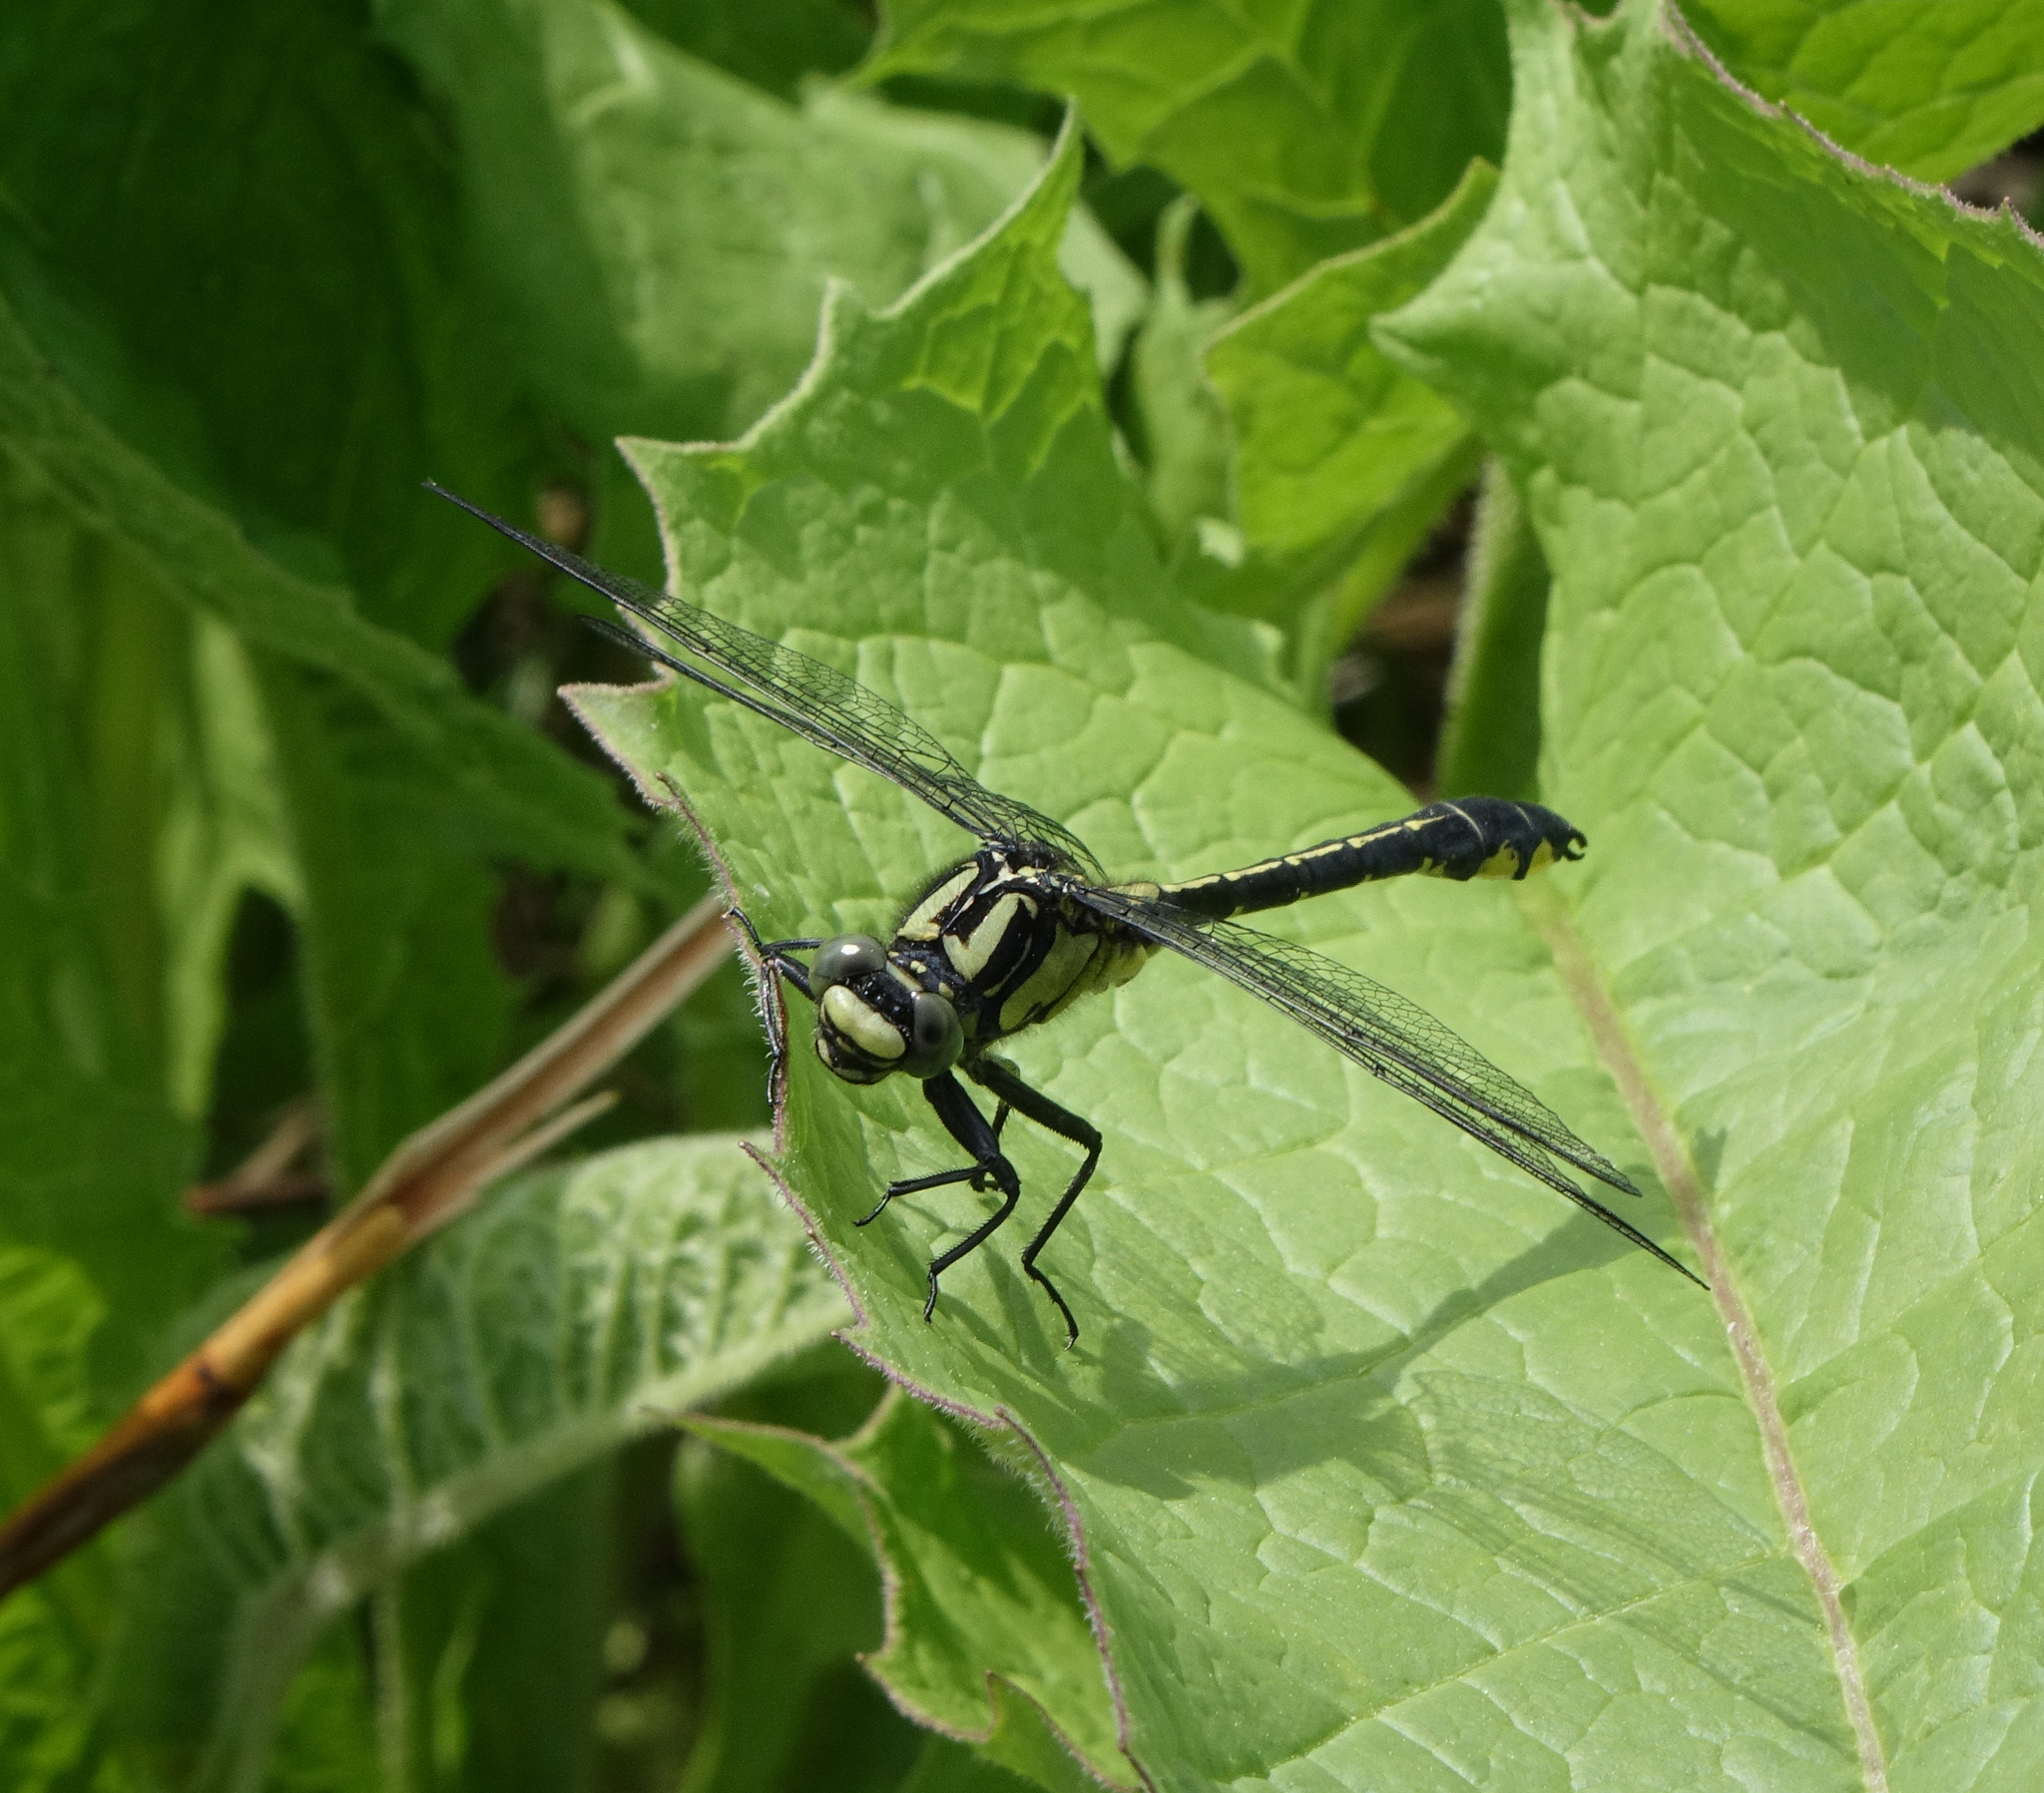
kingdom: Animalia
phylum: Arthropoda
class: Insecta
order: Odonata
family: Gomphidae
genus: Gomphus
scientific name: Gomphus vulgatissimus
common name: Club-tailed dragonfly
